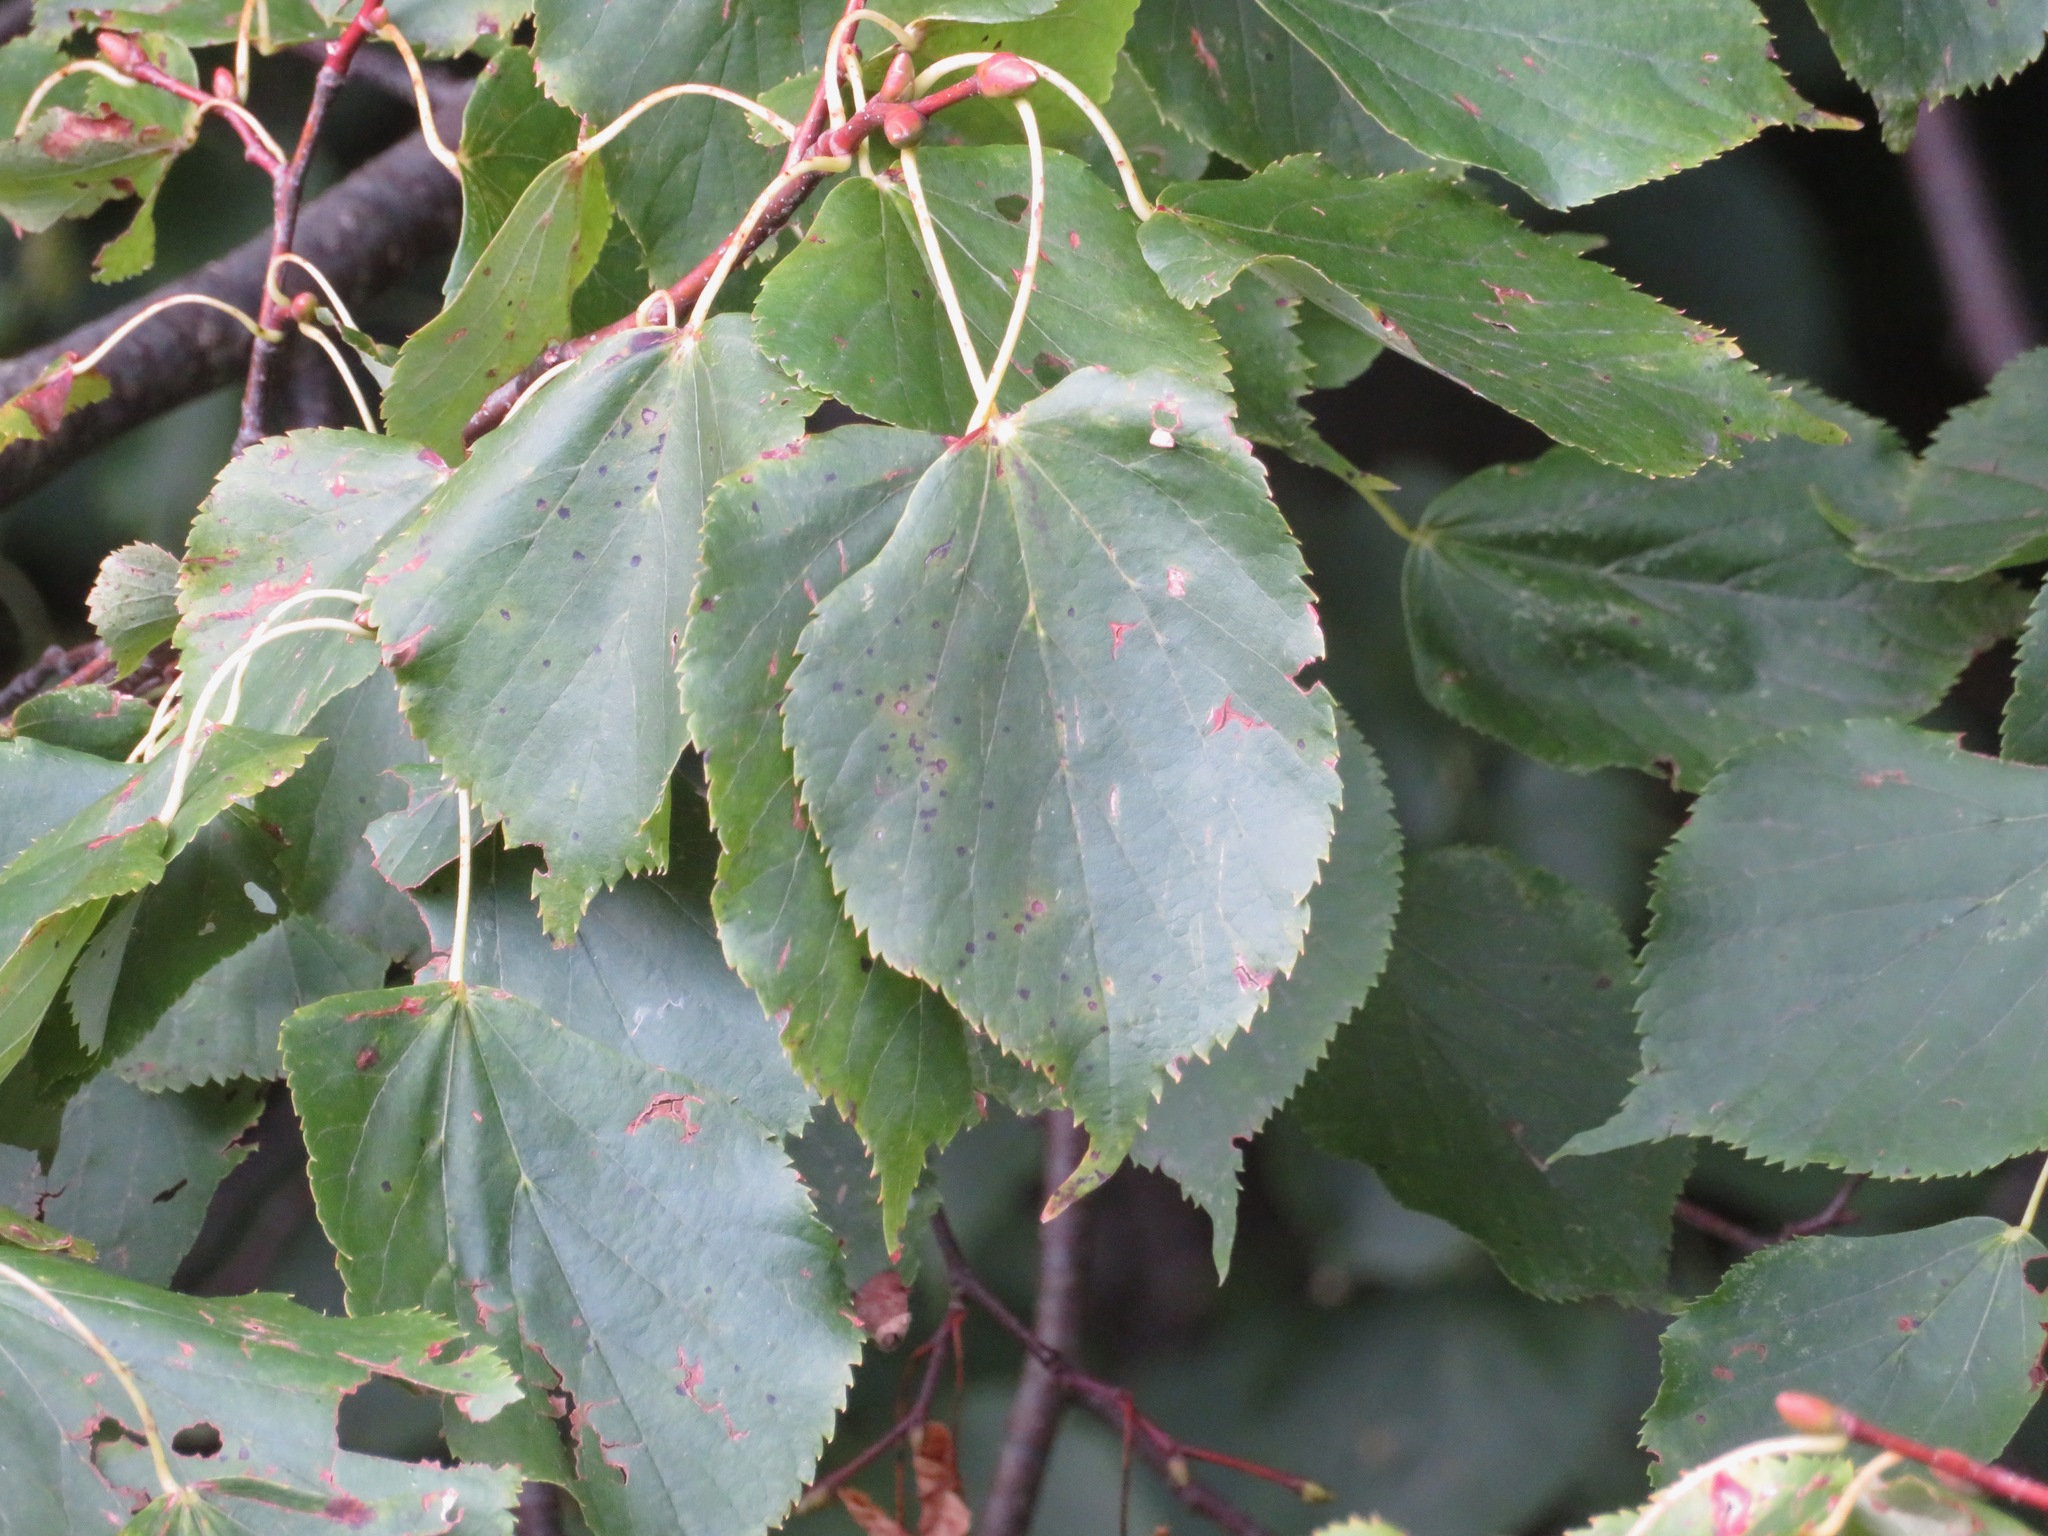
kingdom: Plantae
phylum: Tracheophyta
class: Magnoliopsida
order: Malvales
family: Malvaceae
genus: Tilia
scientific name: Tilia cordata
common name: Small-leaved lime
